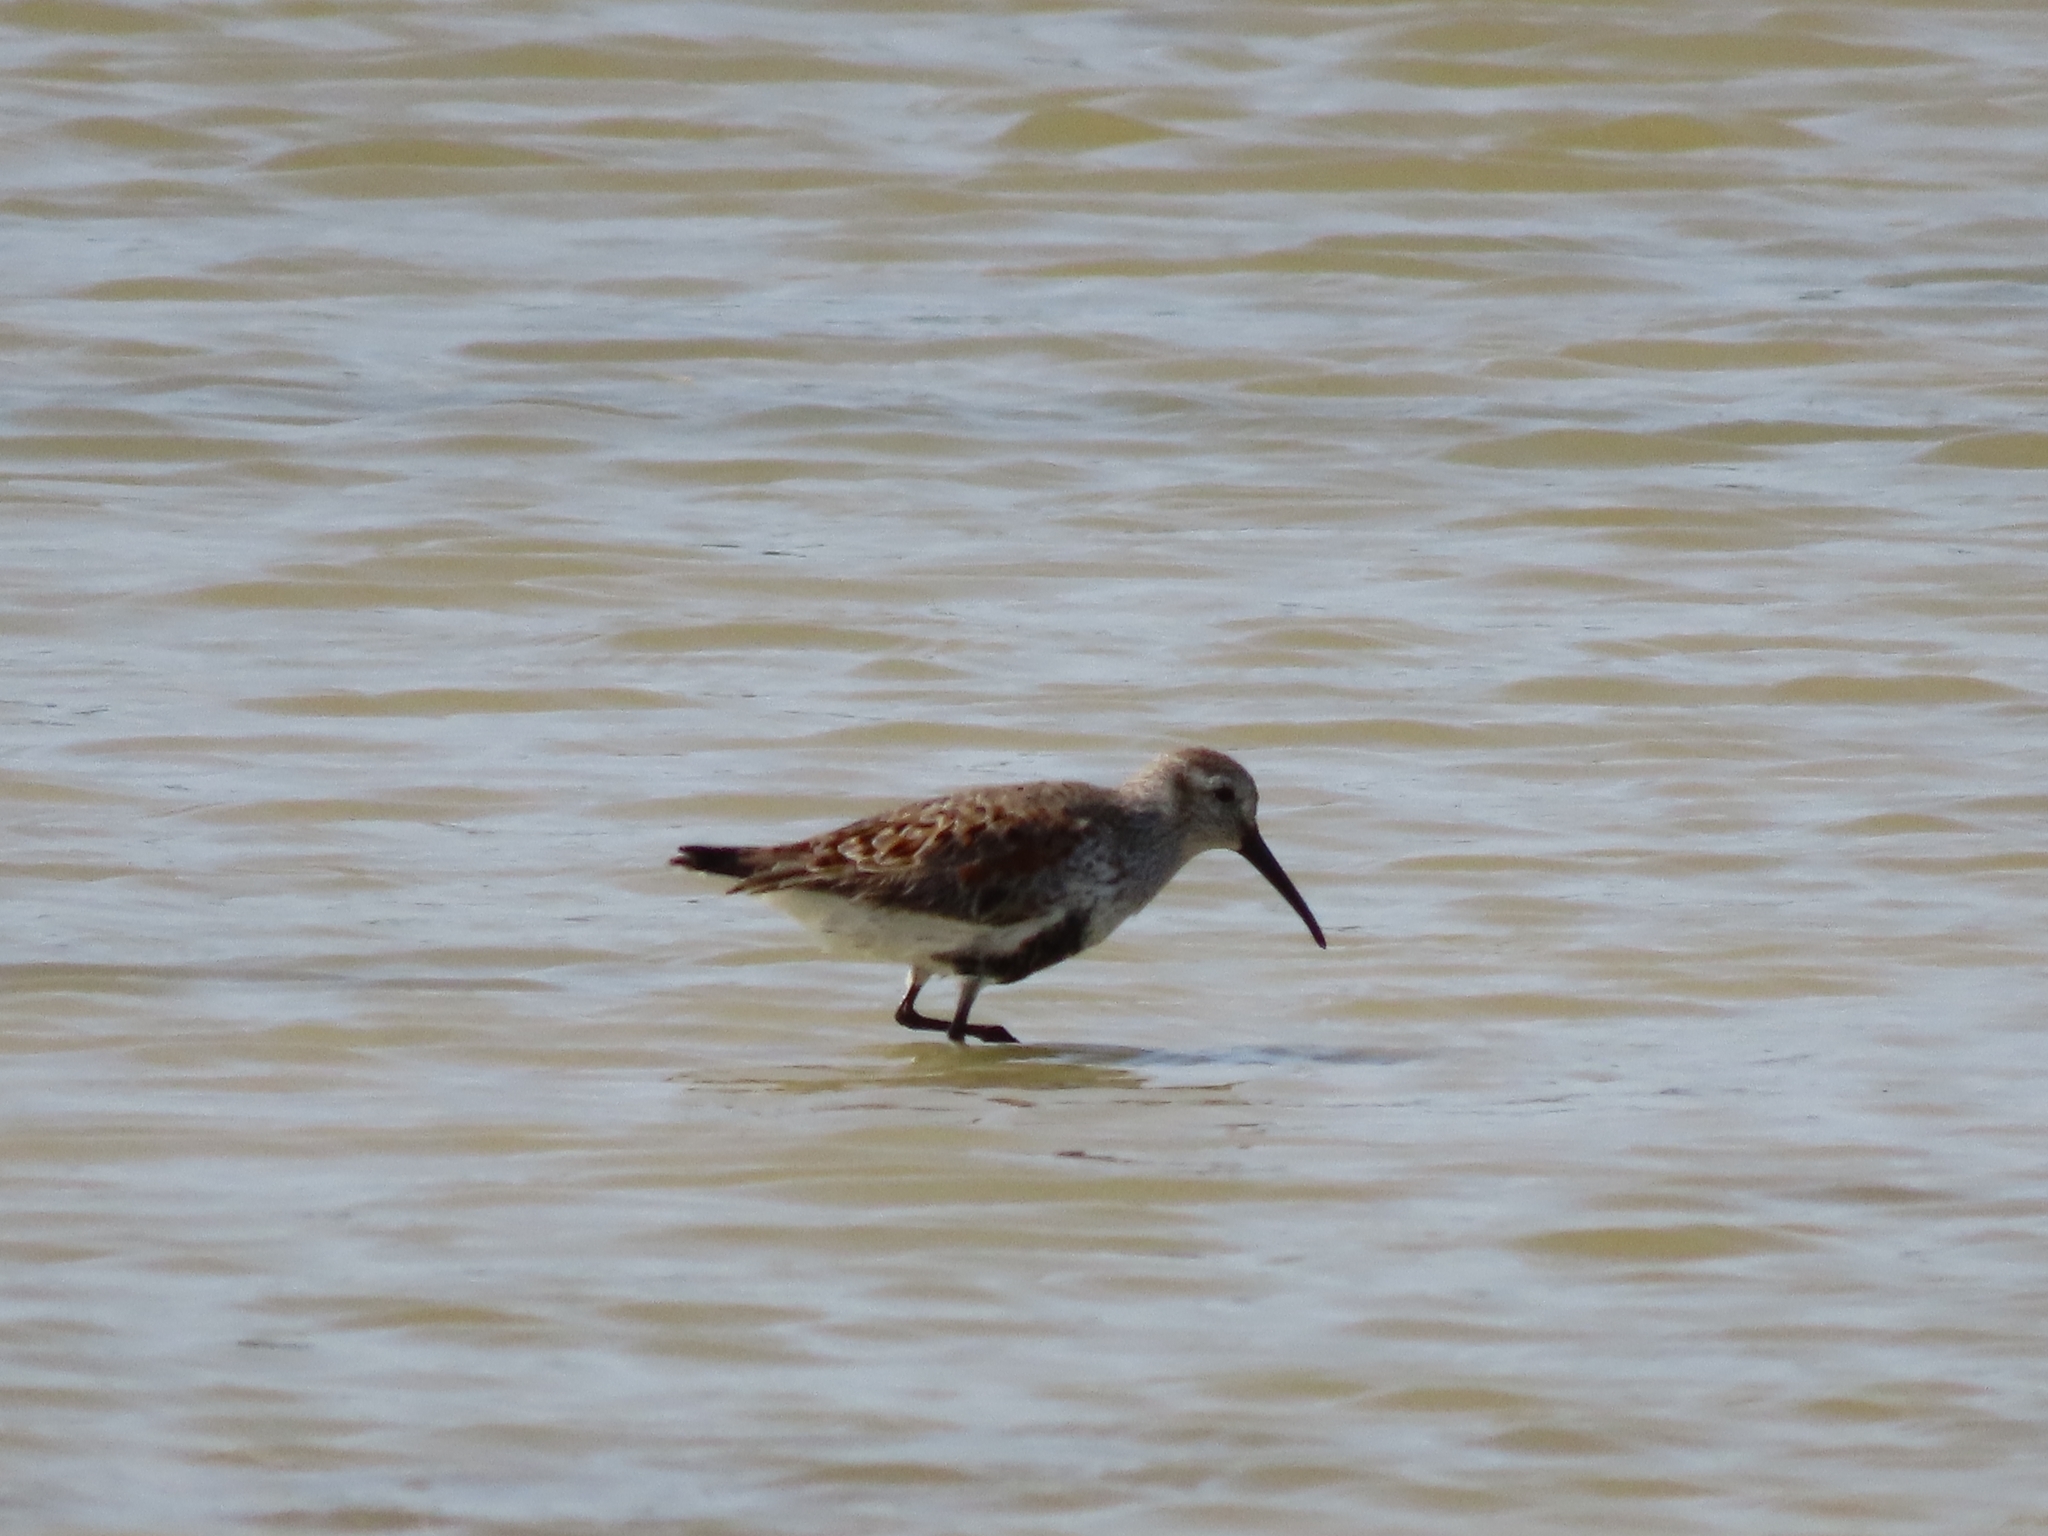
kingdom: Animalia
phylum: Chordata
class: Aves
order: Charadriiformes
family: Scolopacidae
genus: Calidris
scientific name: Calidris alpina
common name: Dunlin
